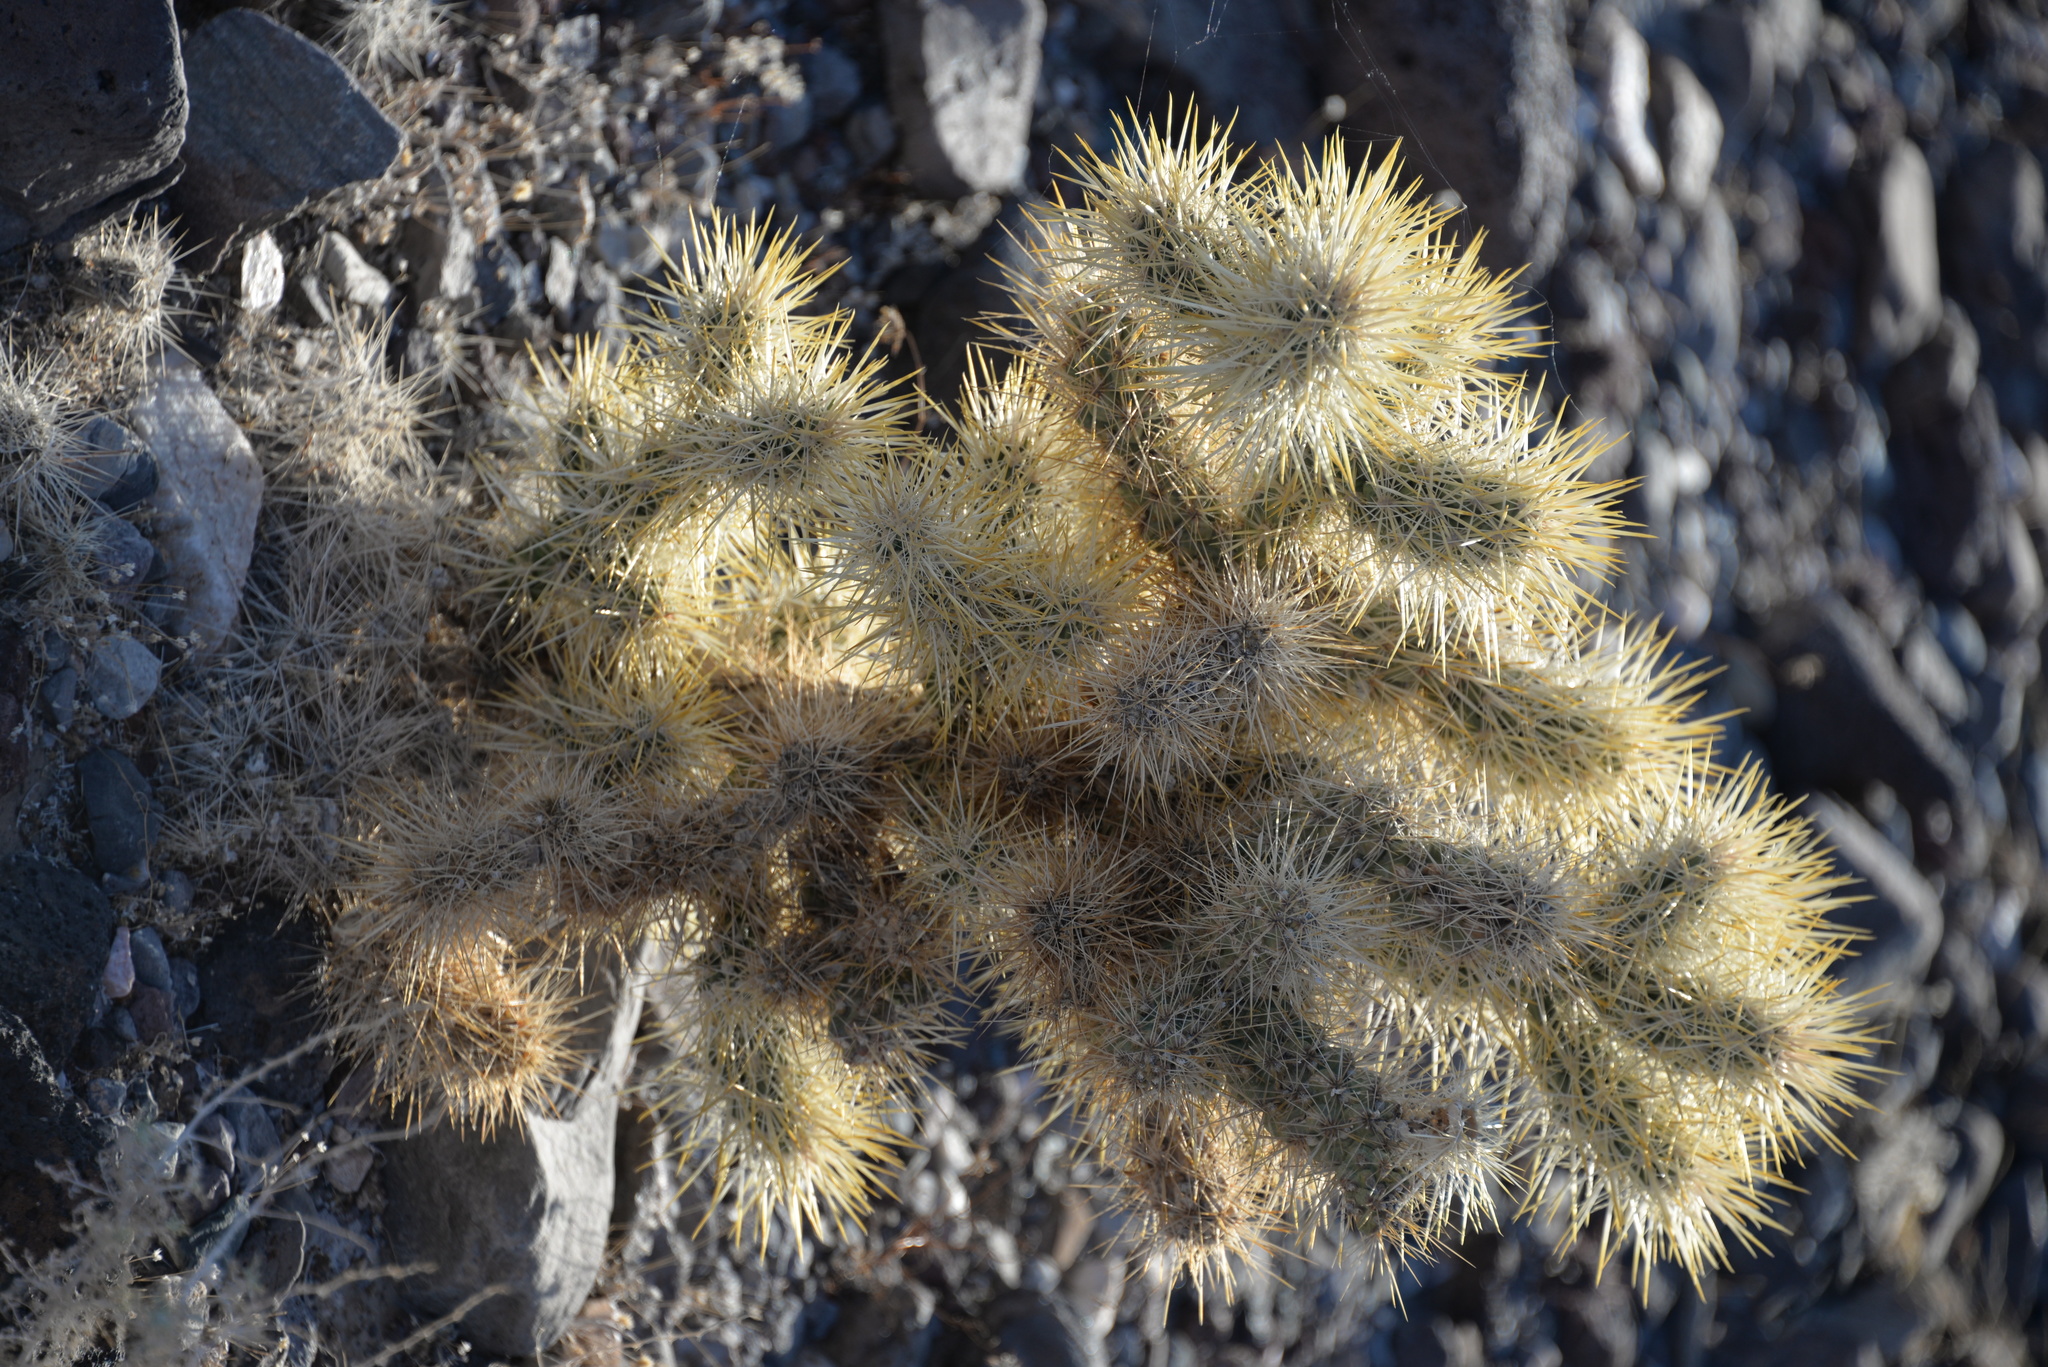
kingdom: Plantae
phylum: Tracheophyta
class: Magnoliopsida
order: Caryophyllales
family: Cactaceae
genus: Cylindropuntia
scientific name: Cylindropuntia echinocarpa
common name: Ground cholla
